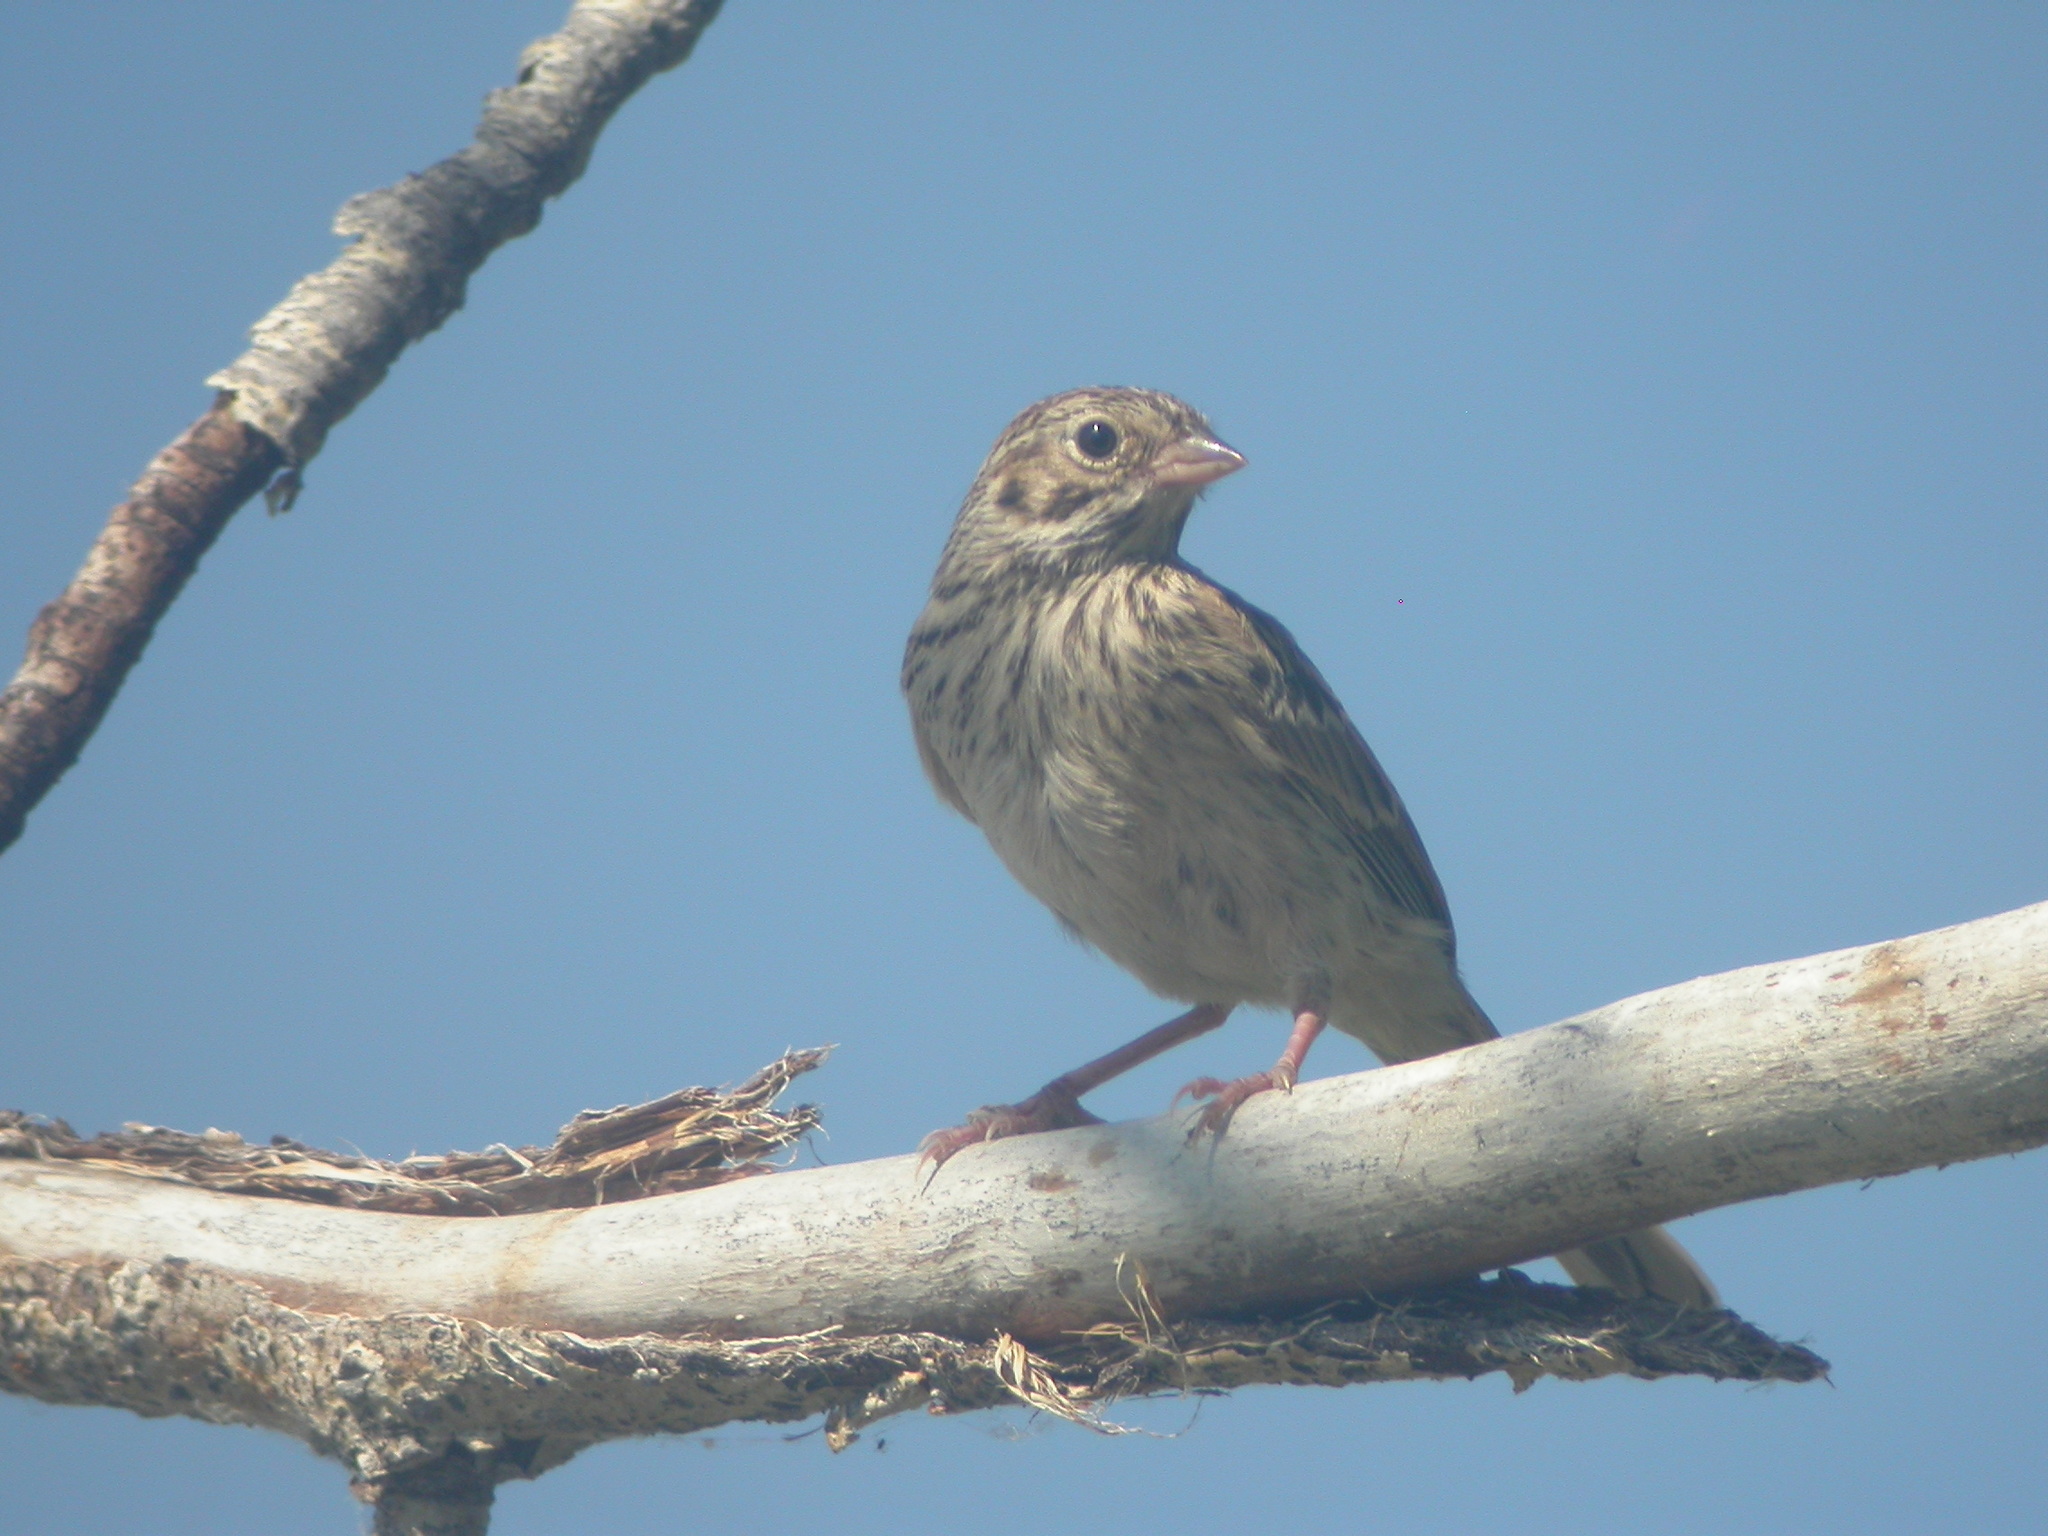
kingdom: Animalia
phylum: Chordata
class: Aves
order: Passeriformes
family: Passerellidae
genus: Pooecetes
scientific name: Pooecetes gramineus
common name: Vesper sparrow
